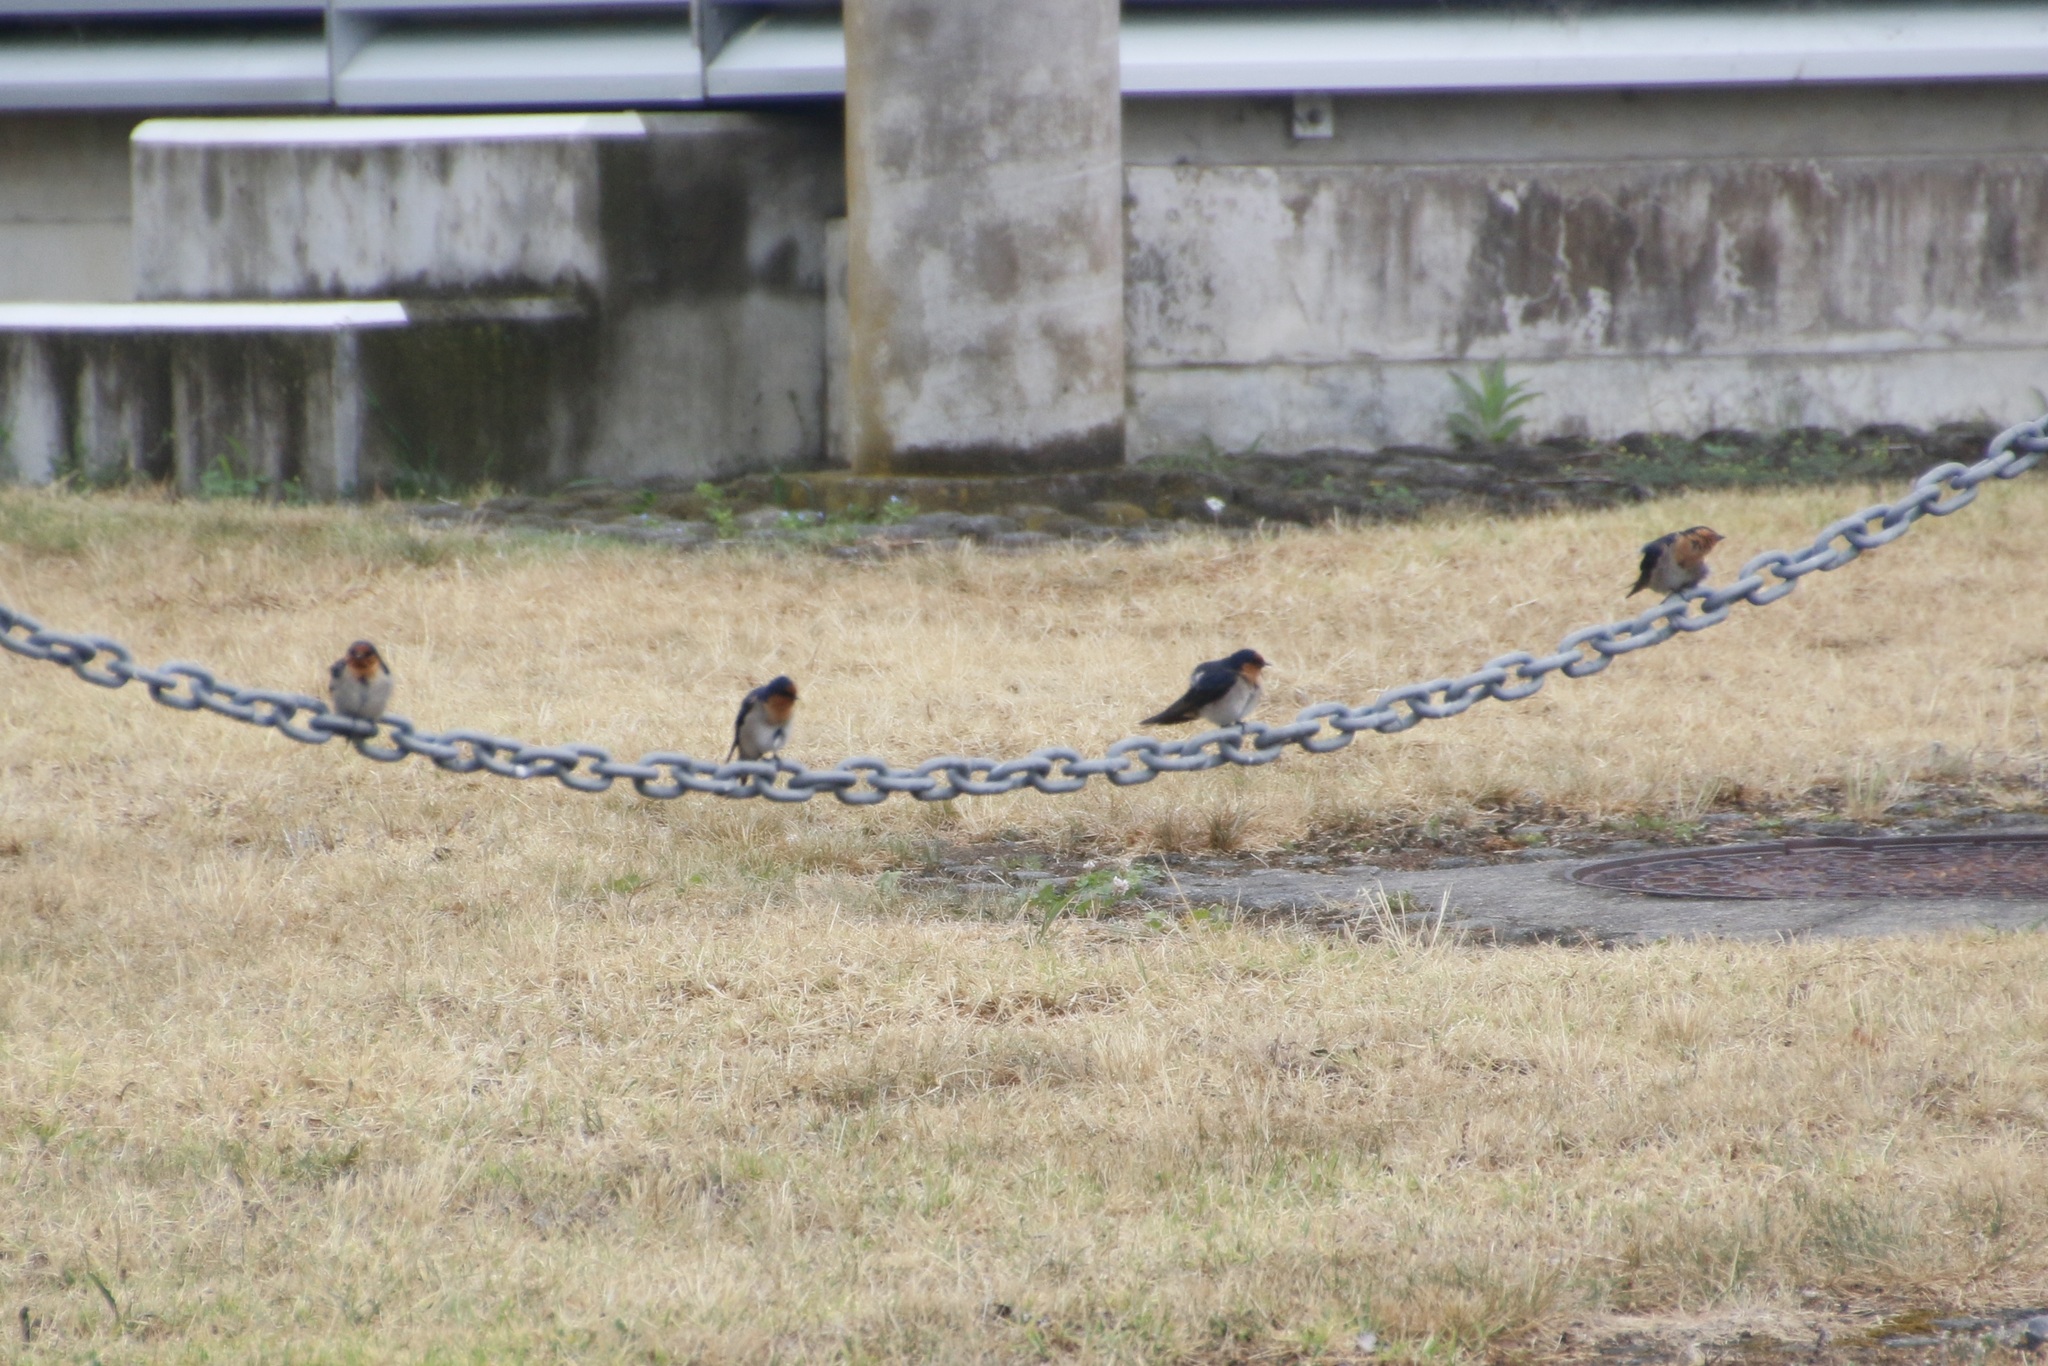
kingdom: Animalia
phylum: Chordata
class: Aves
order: Passeriformes
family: Hirundinidae
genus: Hirundo
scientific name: Hirundo neoxena
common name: Welcome swallow
